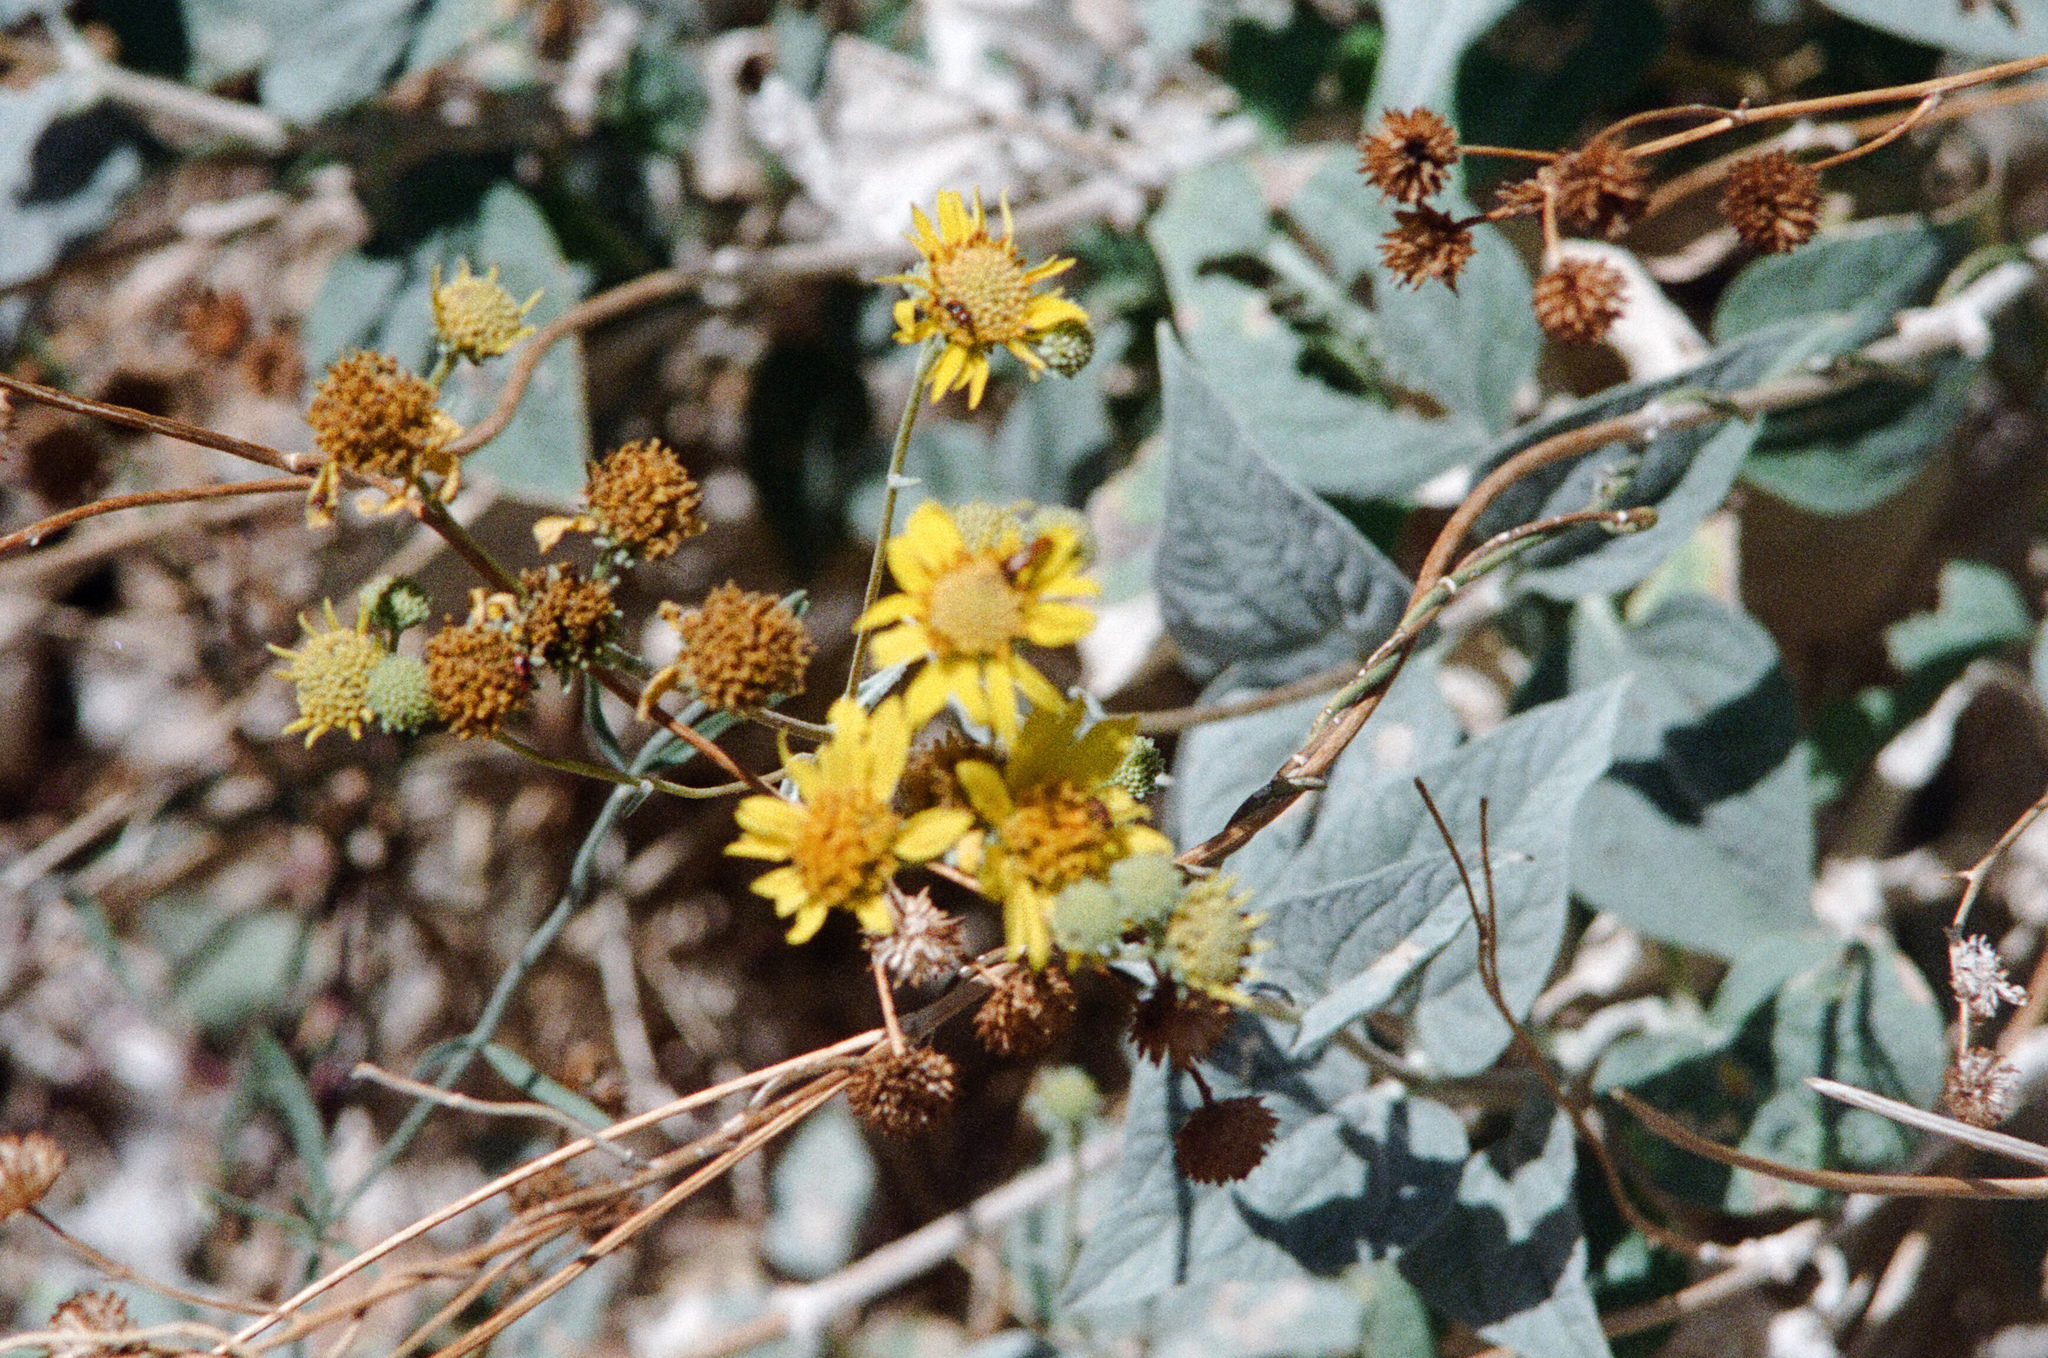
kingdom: Plantae
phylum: Tracheophyta
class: Magnoliopsida
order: Asterales
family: Asteraceae
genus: Bahiopsis
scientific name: Bahiopsis reticulata
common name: Death valley goldeneye
